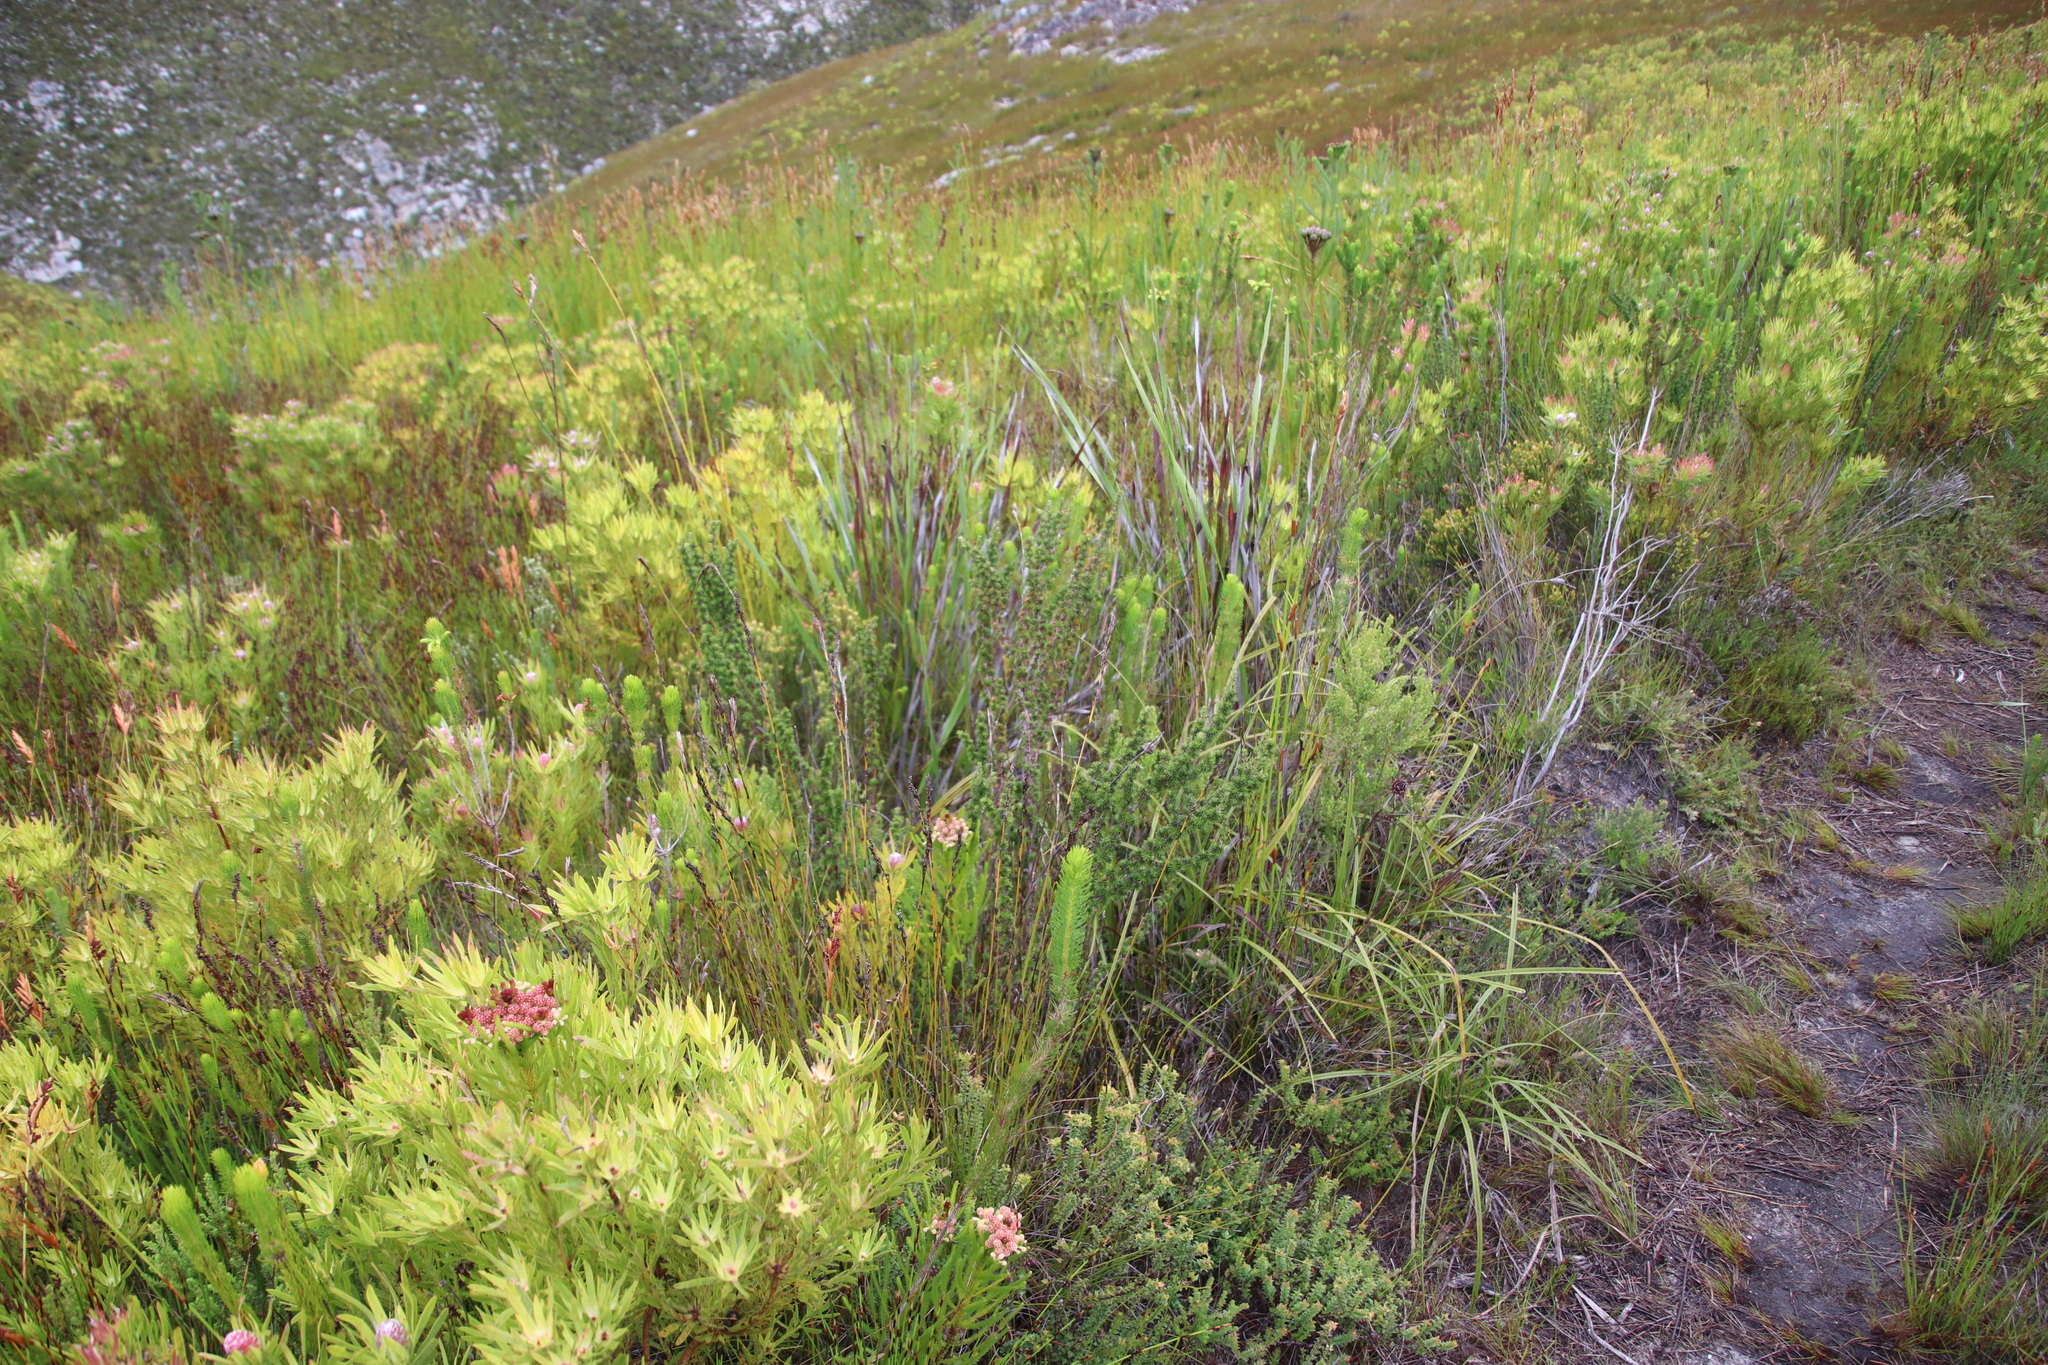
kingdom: Plantae
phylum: Tracheophyta
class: Magnoliopsida
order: Rosales
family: Rosaceae
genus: Cliffortia
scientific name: Cliffortia stricta
